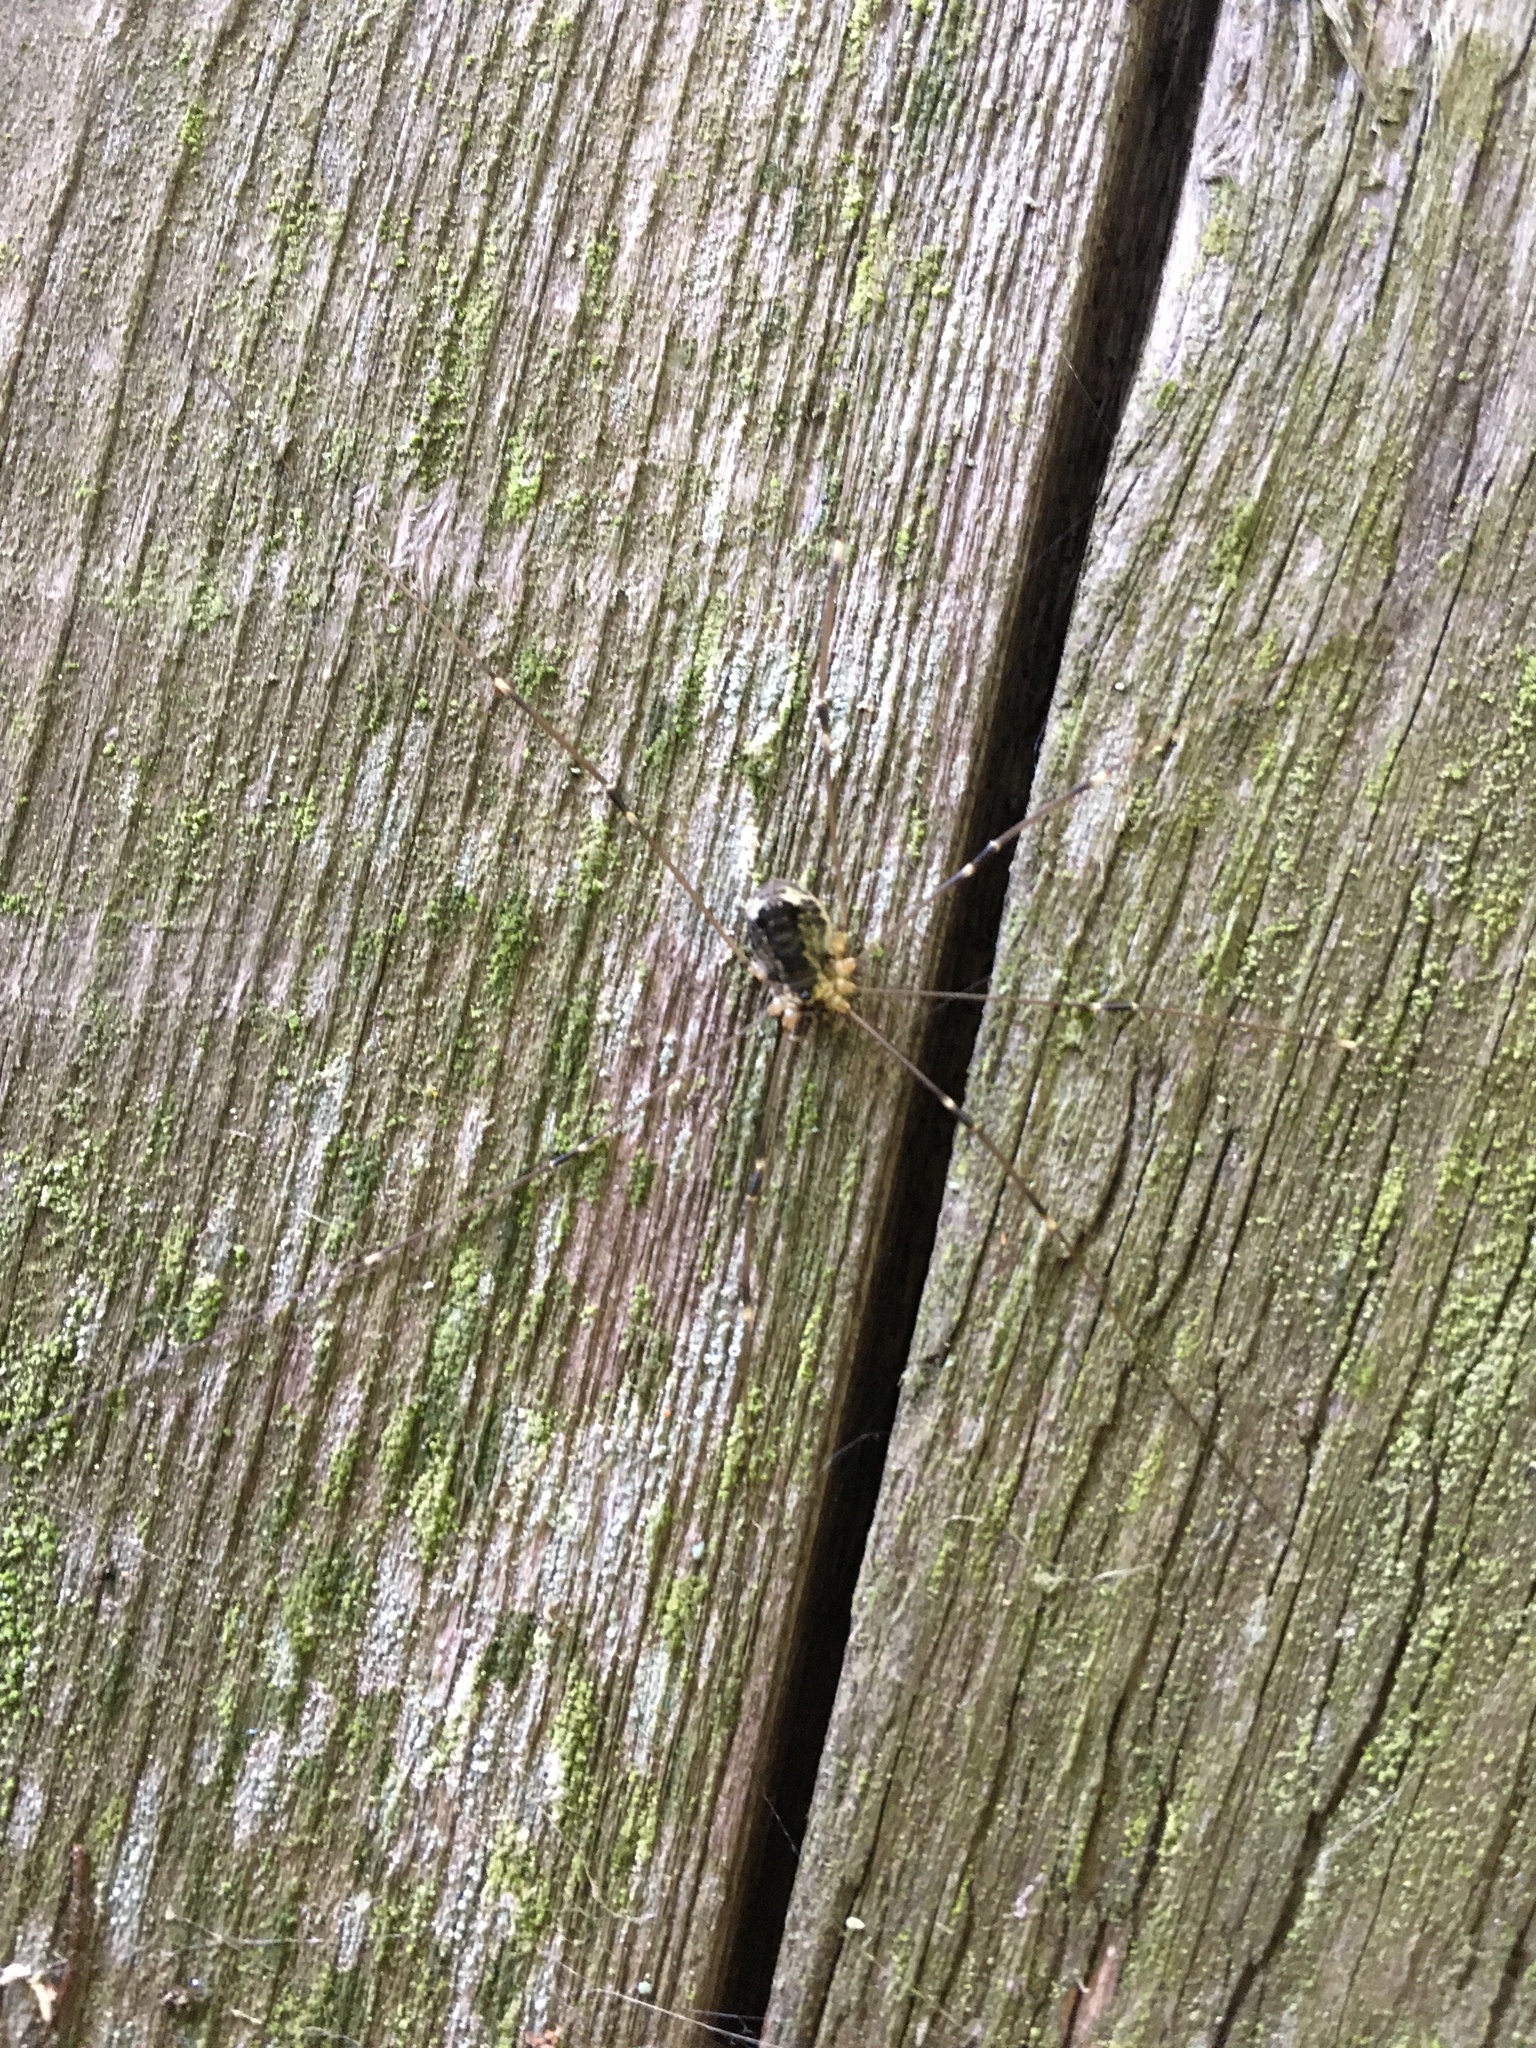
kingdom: Animalia
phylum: Arthropoda
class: Arachnida
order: Opiliones
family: Sclerosomatidae
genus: Leiobunum
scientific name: Leiobunum gracile
